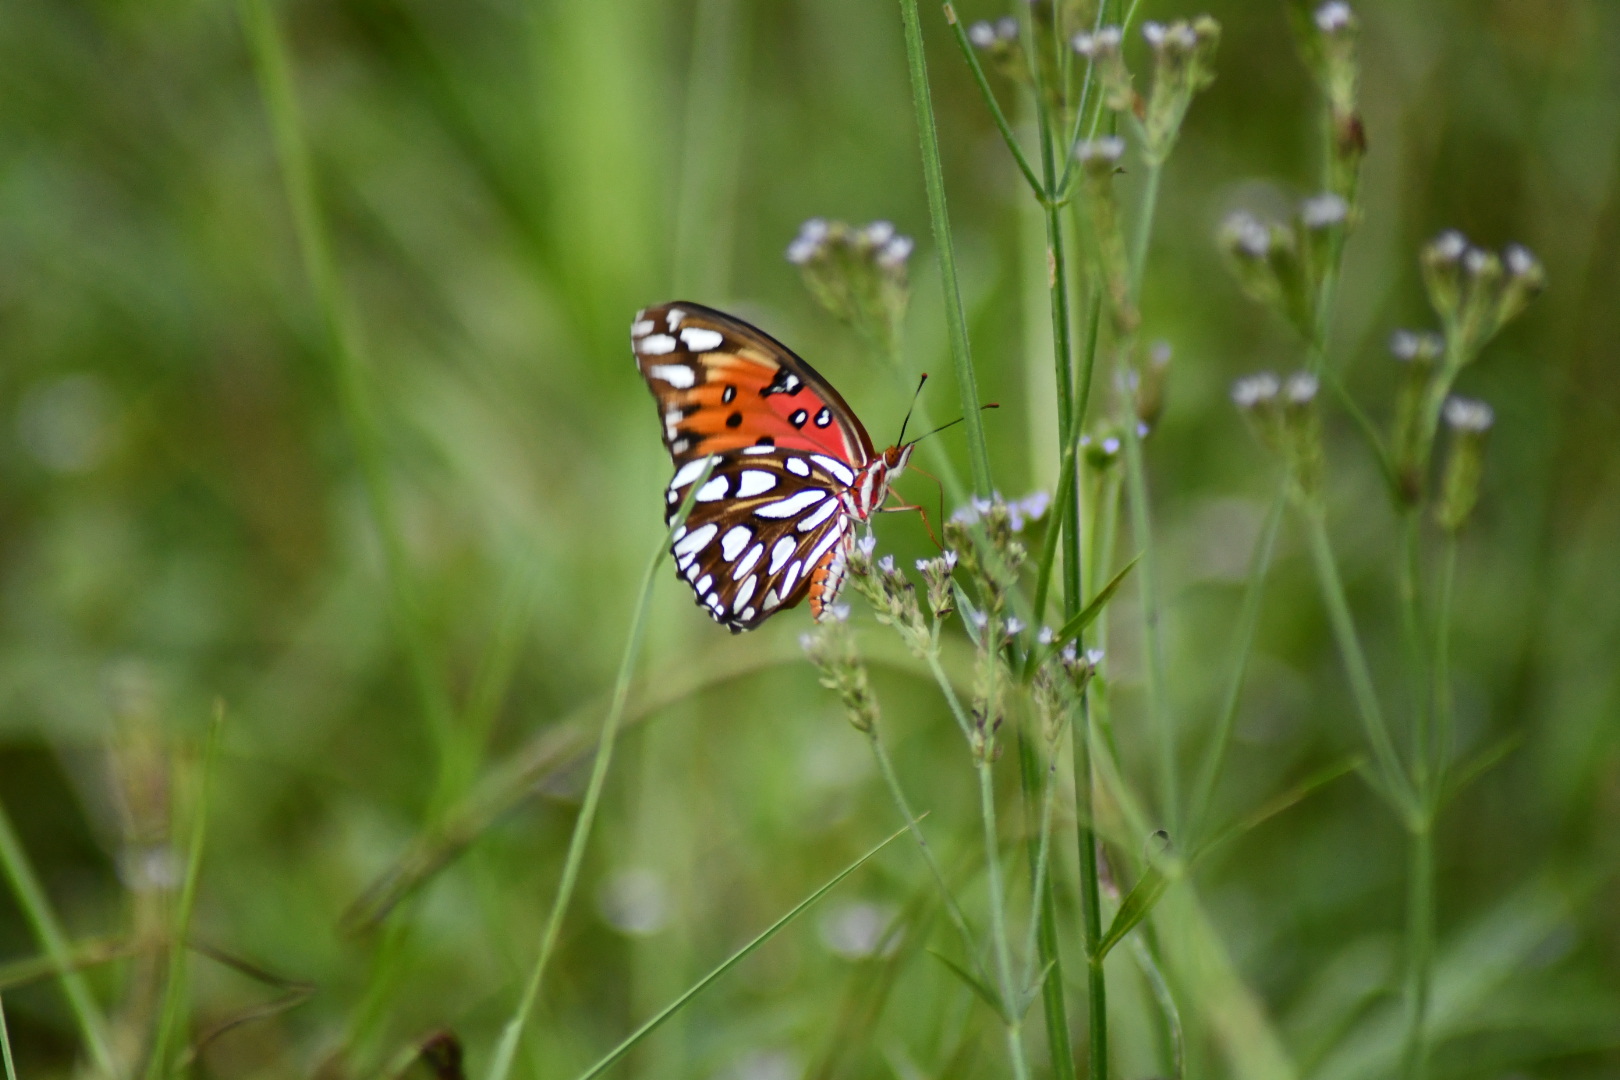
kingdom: Animalia
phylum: Arthropoda
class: Insecta
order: Lepidoptera
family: Nymphalidae
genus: Dione
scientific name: Dione vanillae
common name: Gulf fritillary
